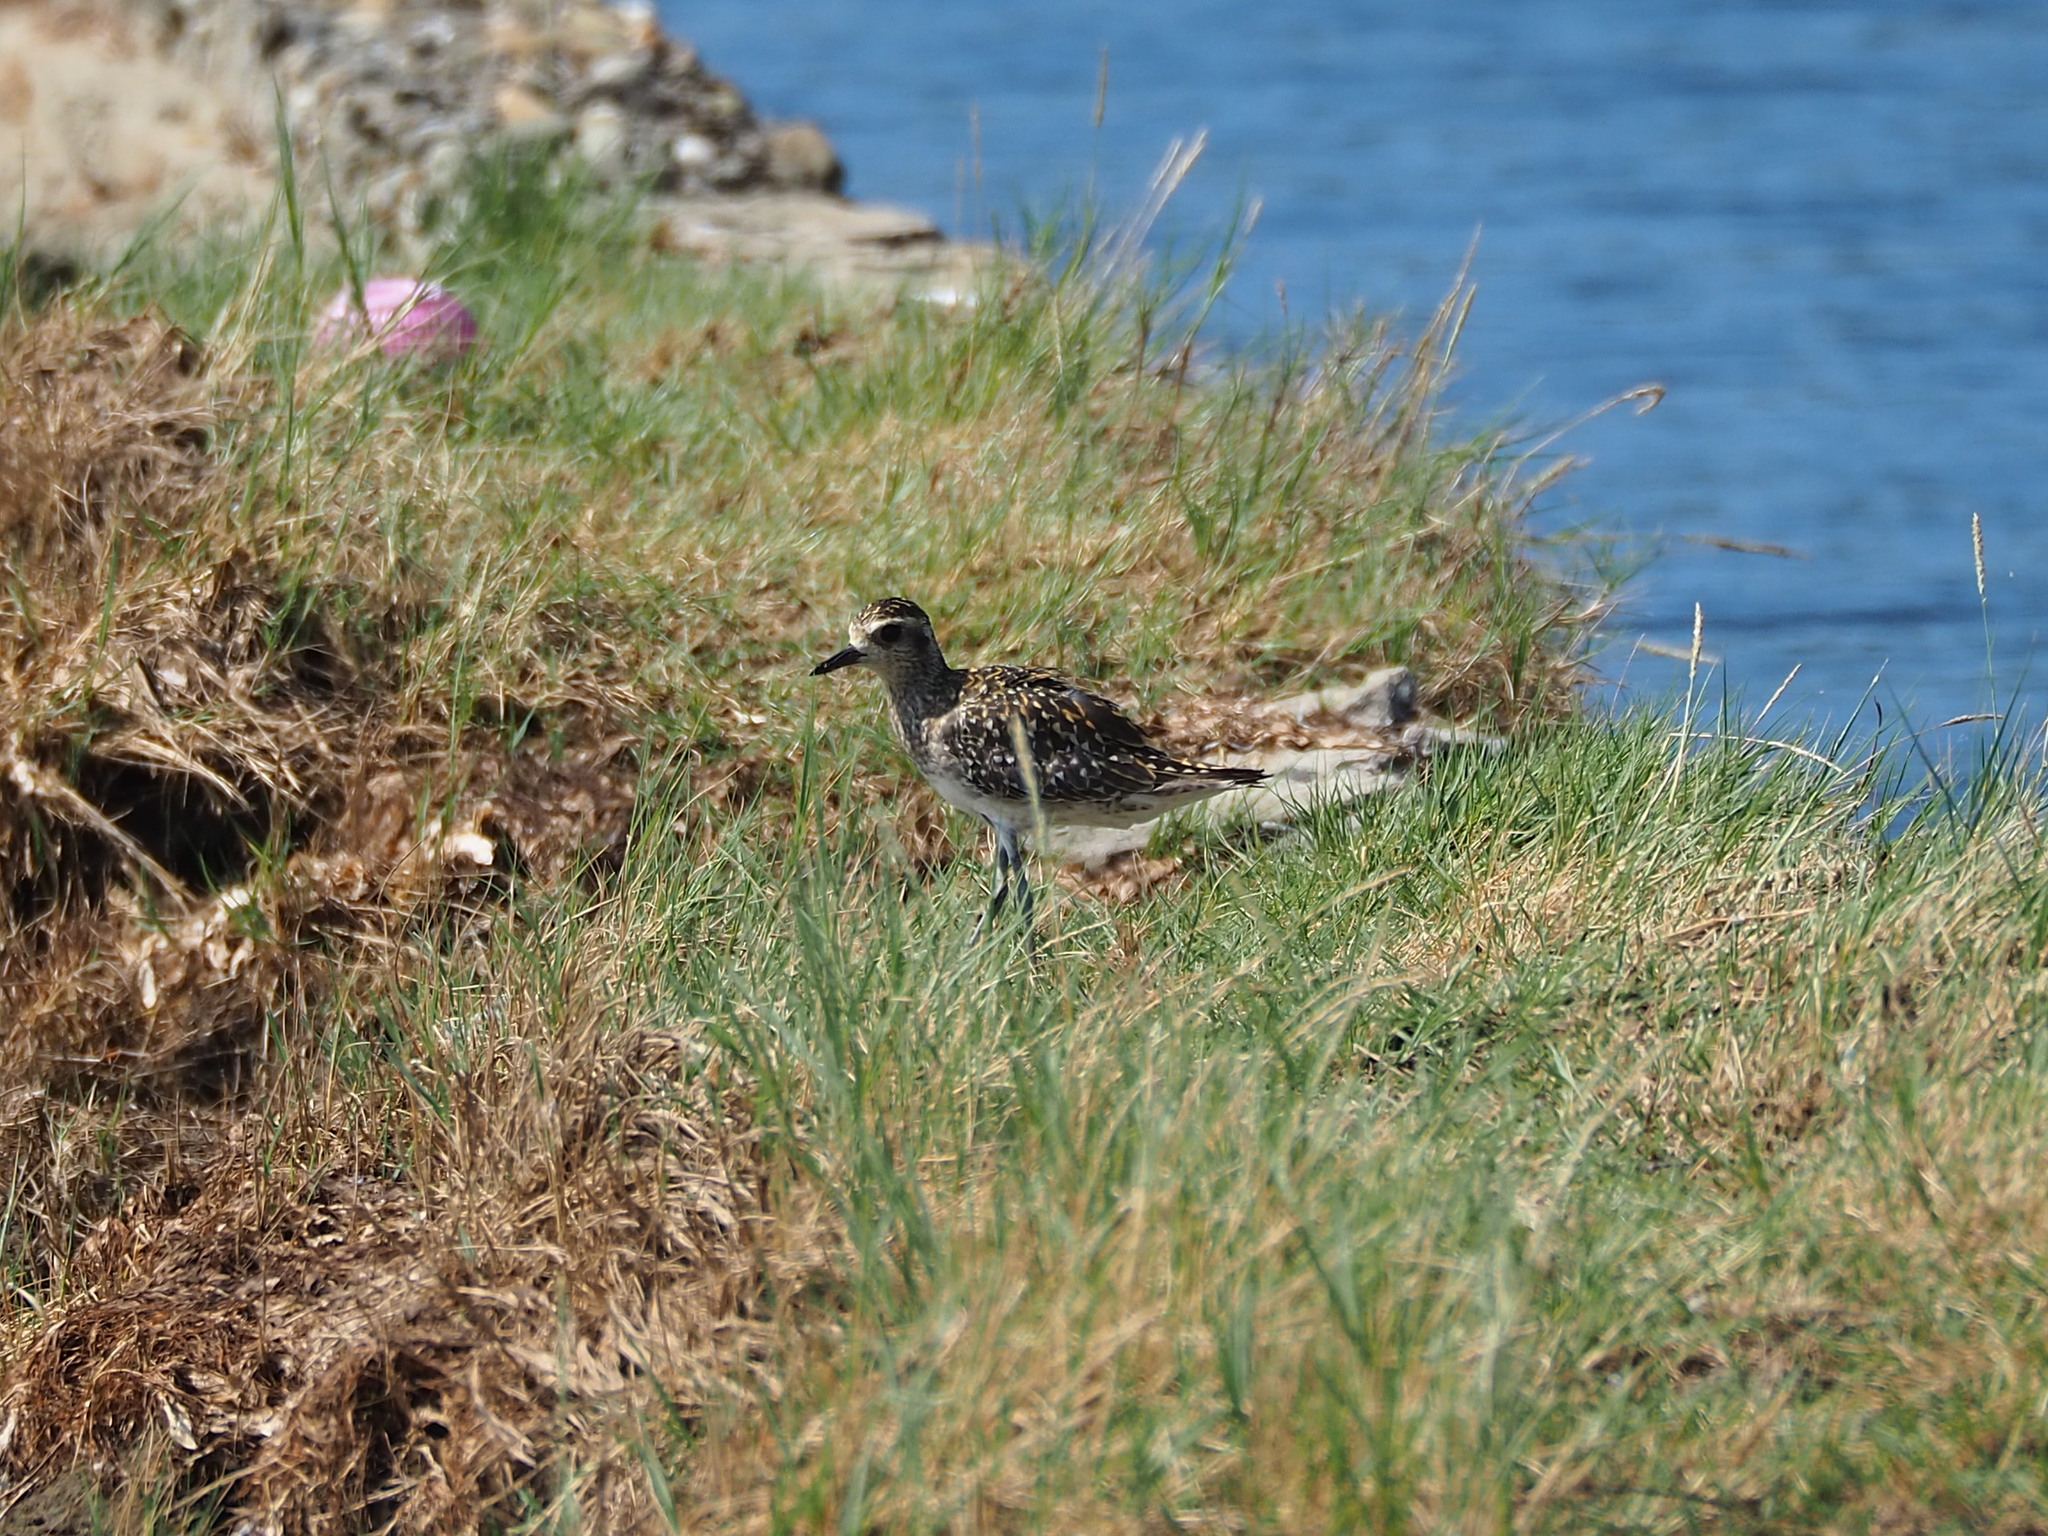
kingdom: Animalia
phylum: Chordata
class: Aves
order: Charadriiformes
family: Charadriidae
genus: Pluvialis
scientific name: Pluvialis fulva
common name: Pacific golden plover
